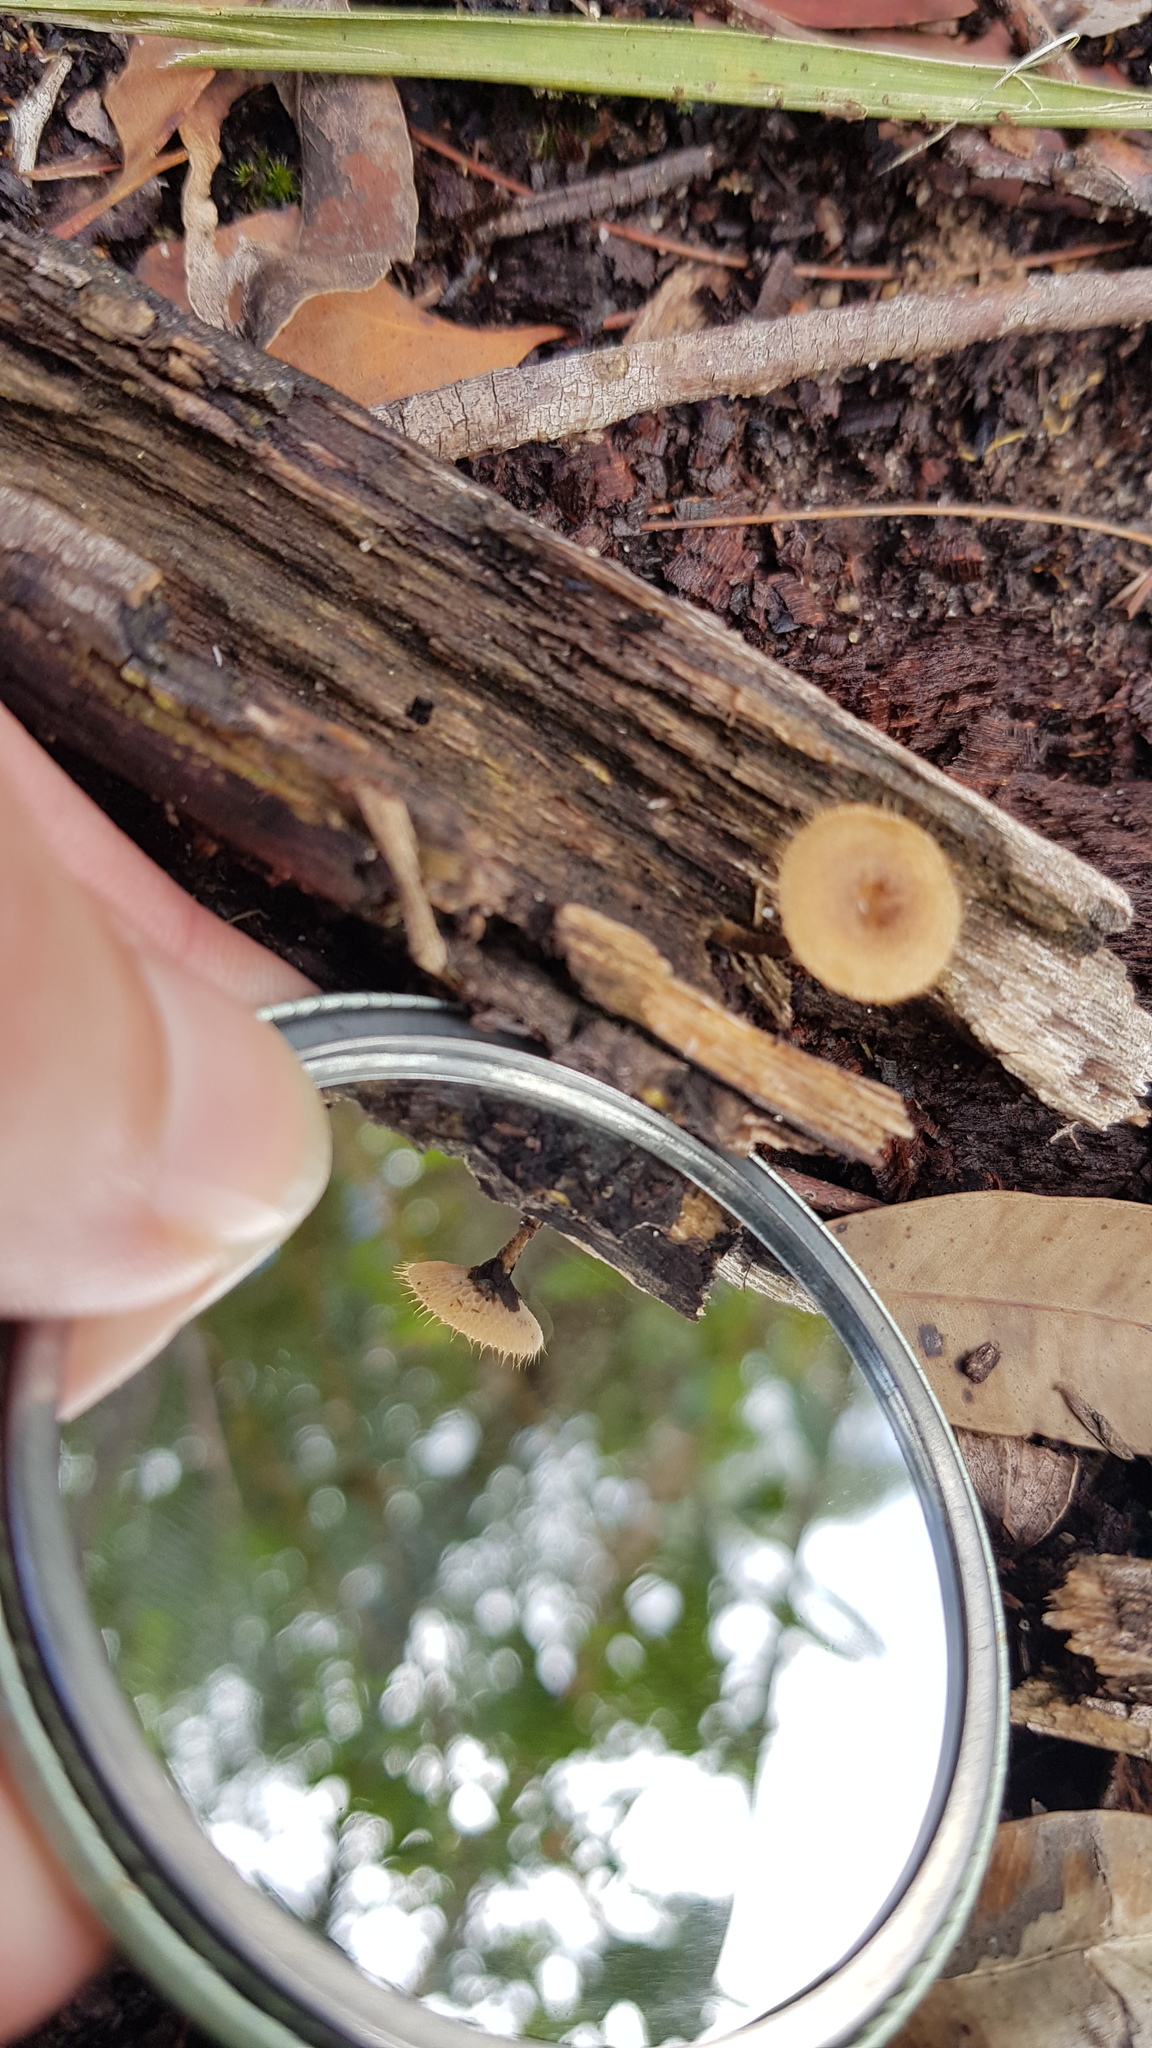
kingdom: Fungi
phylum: Basidiomycota
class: Agaricomycetes
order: Polyporales
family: Polyporaceae
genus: Lentinus
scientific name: Lentinus arcularius
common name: Spring polypore
